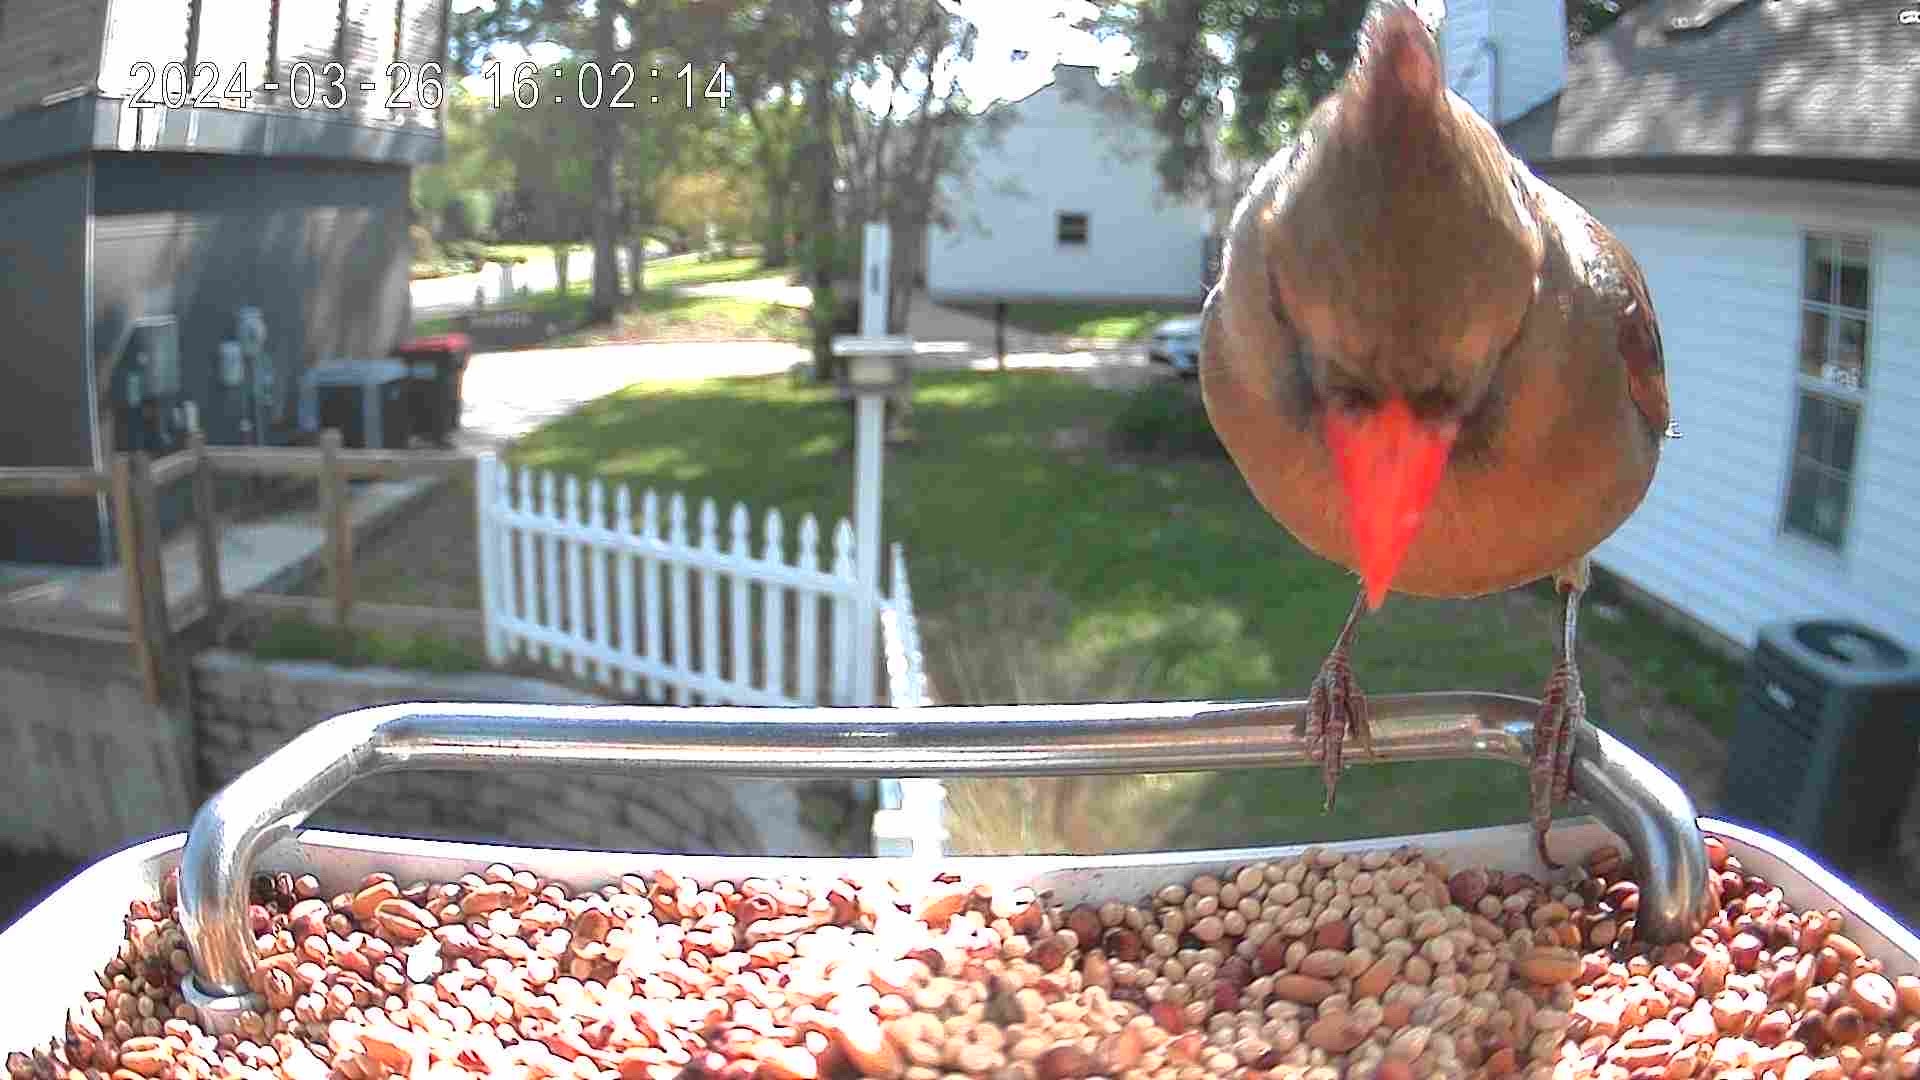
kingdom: Animalia
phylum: Chordata
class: Aves
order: Passeriformes
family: Cardinalidae
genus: Cardinalis
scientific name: Cardinalis cardinalis
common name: Northern cardinal
